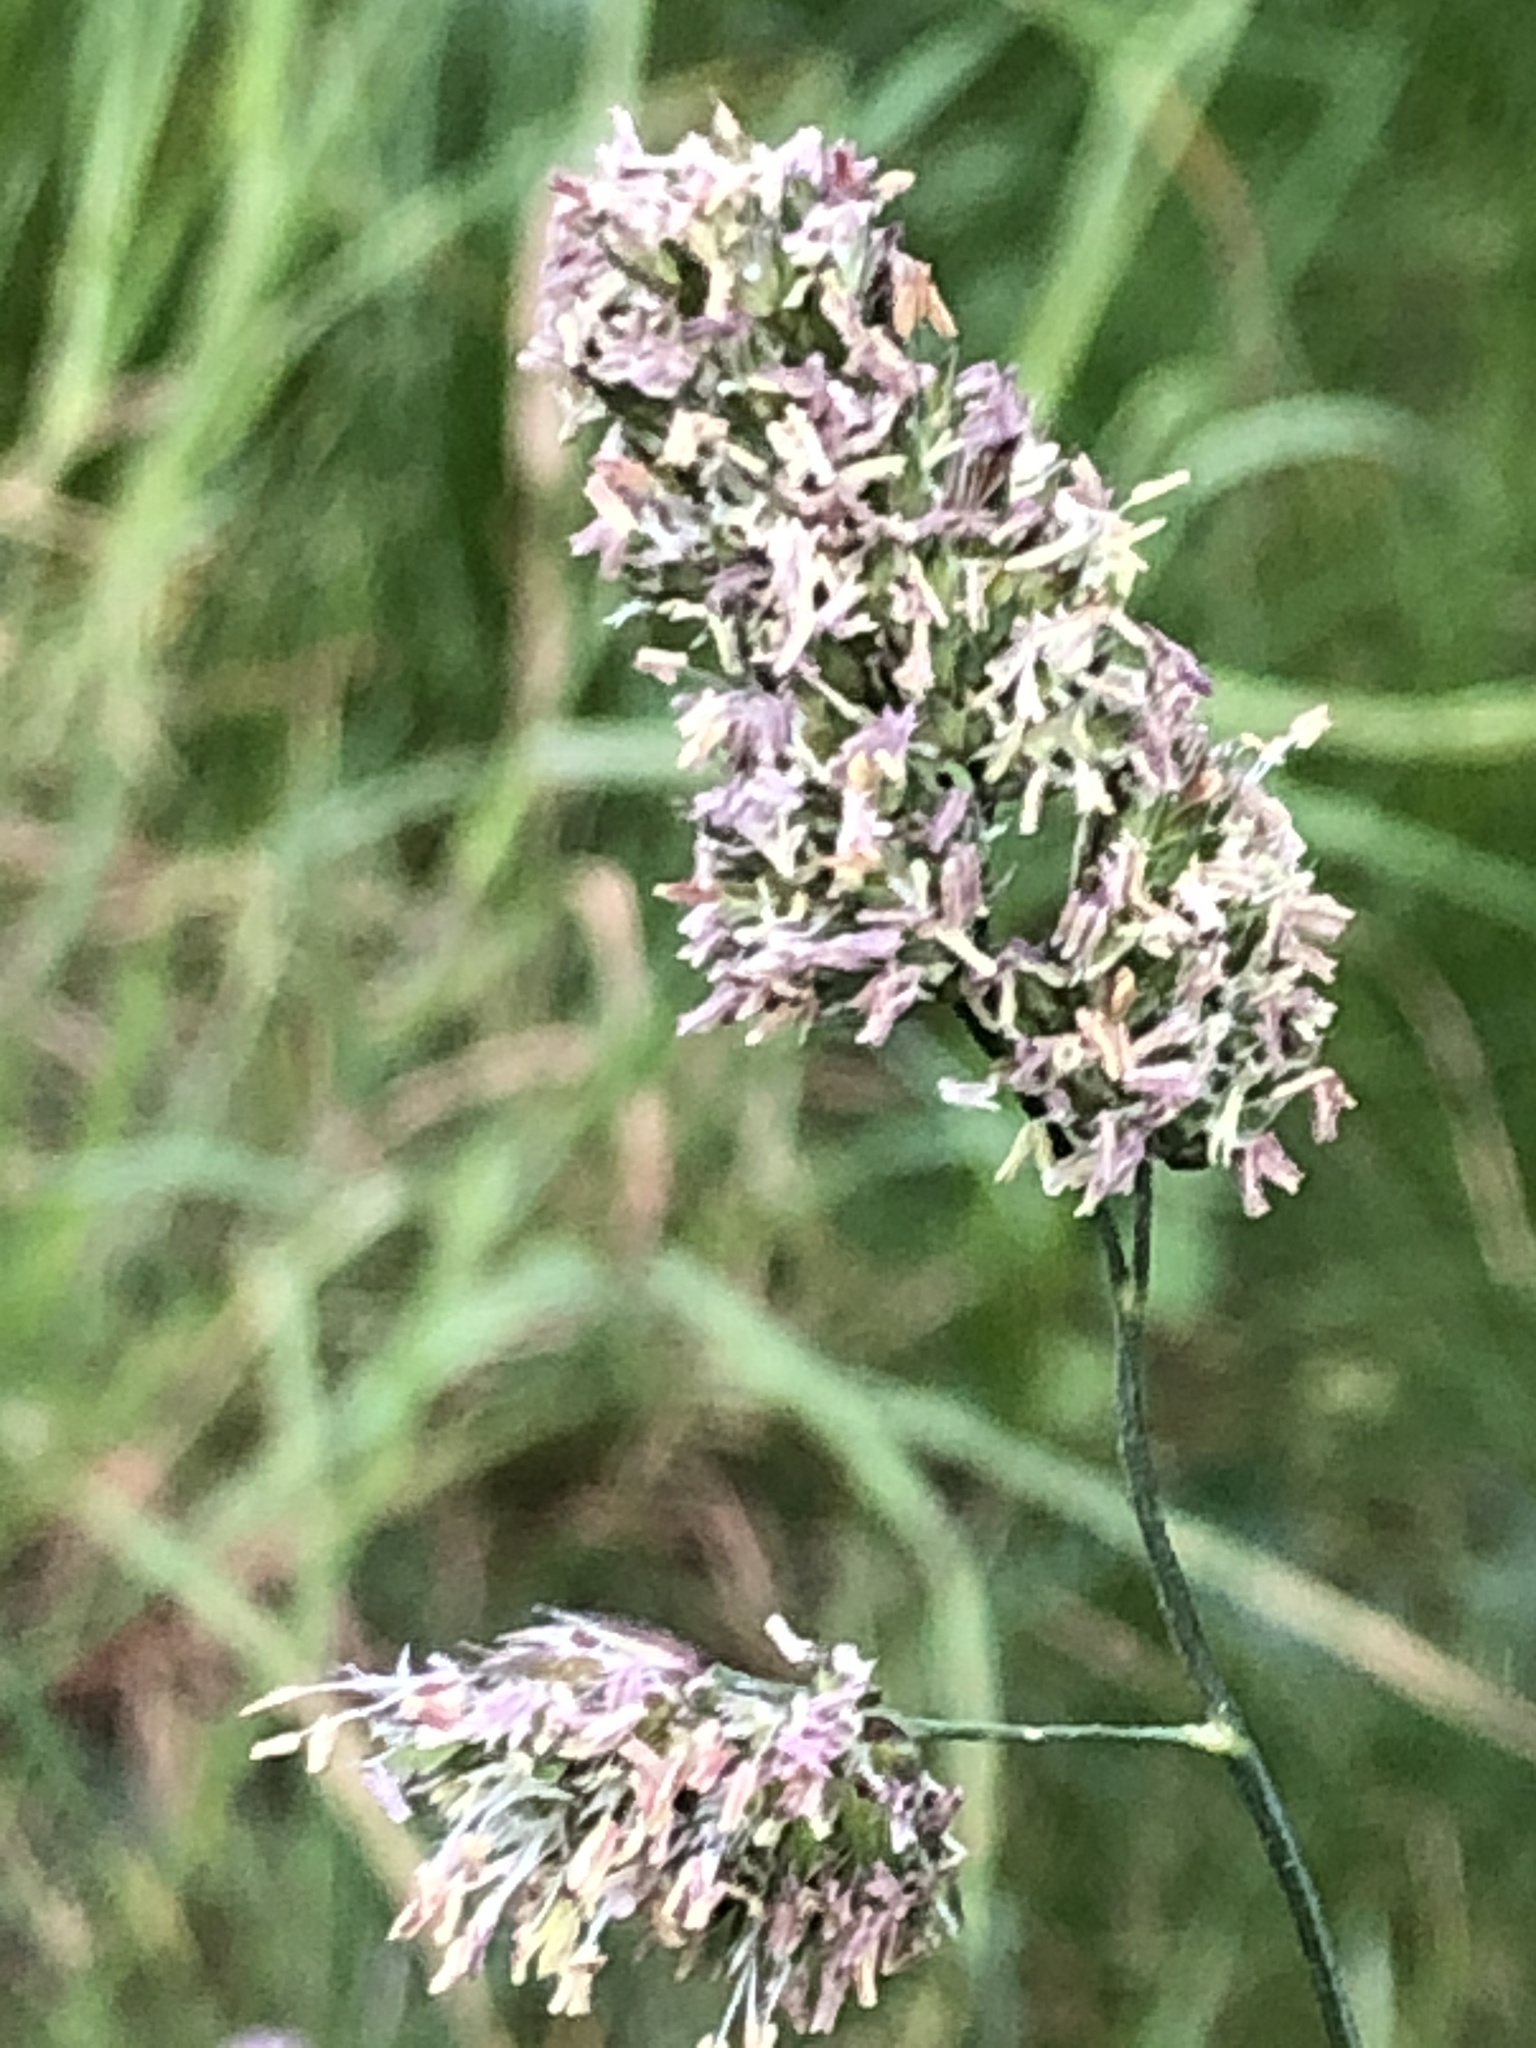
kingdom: Plantae
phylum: Tracheophyta
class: Liliopsida
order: Poales
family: Poaceae
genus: Dactylis
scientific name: Dactylis glomerata
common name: Orchardgrass
